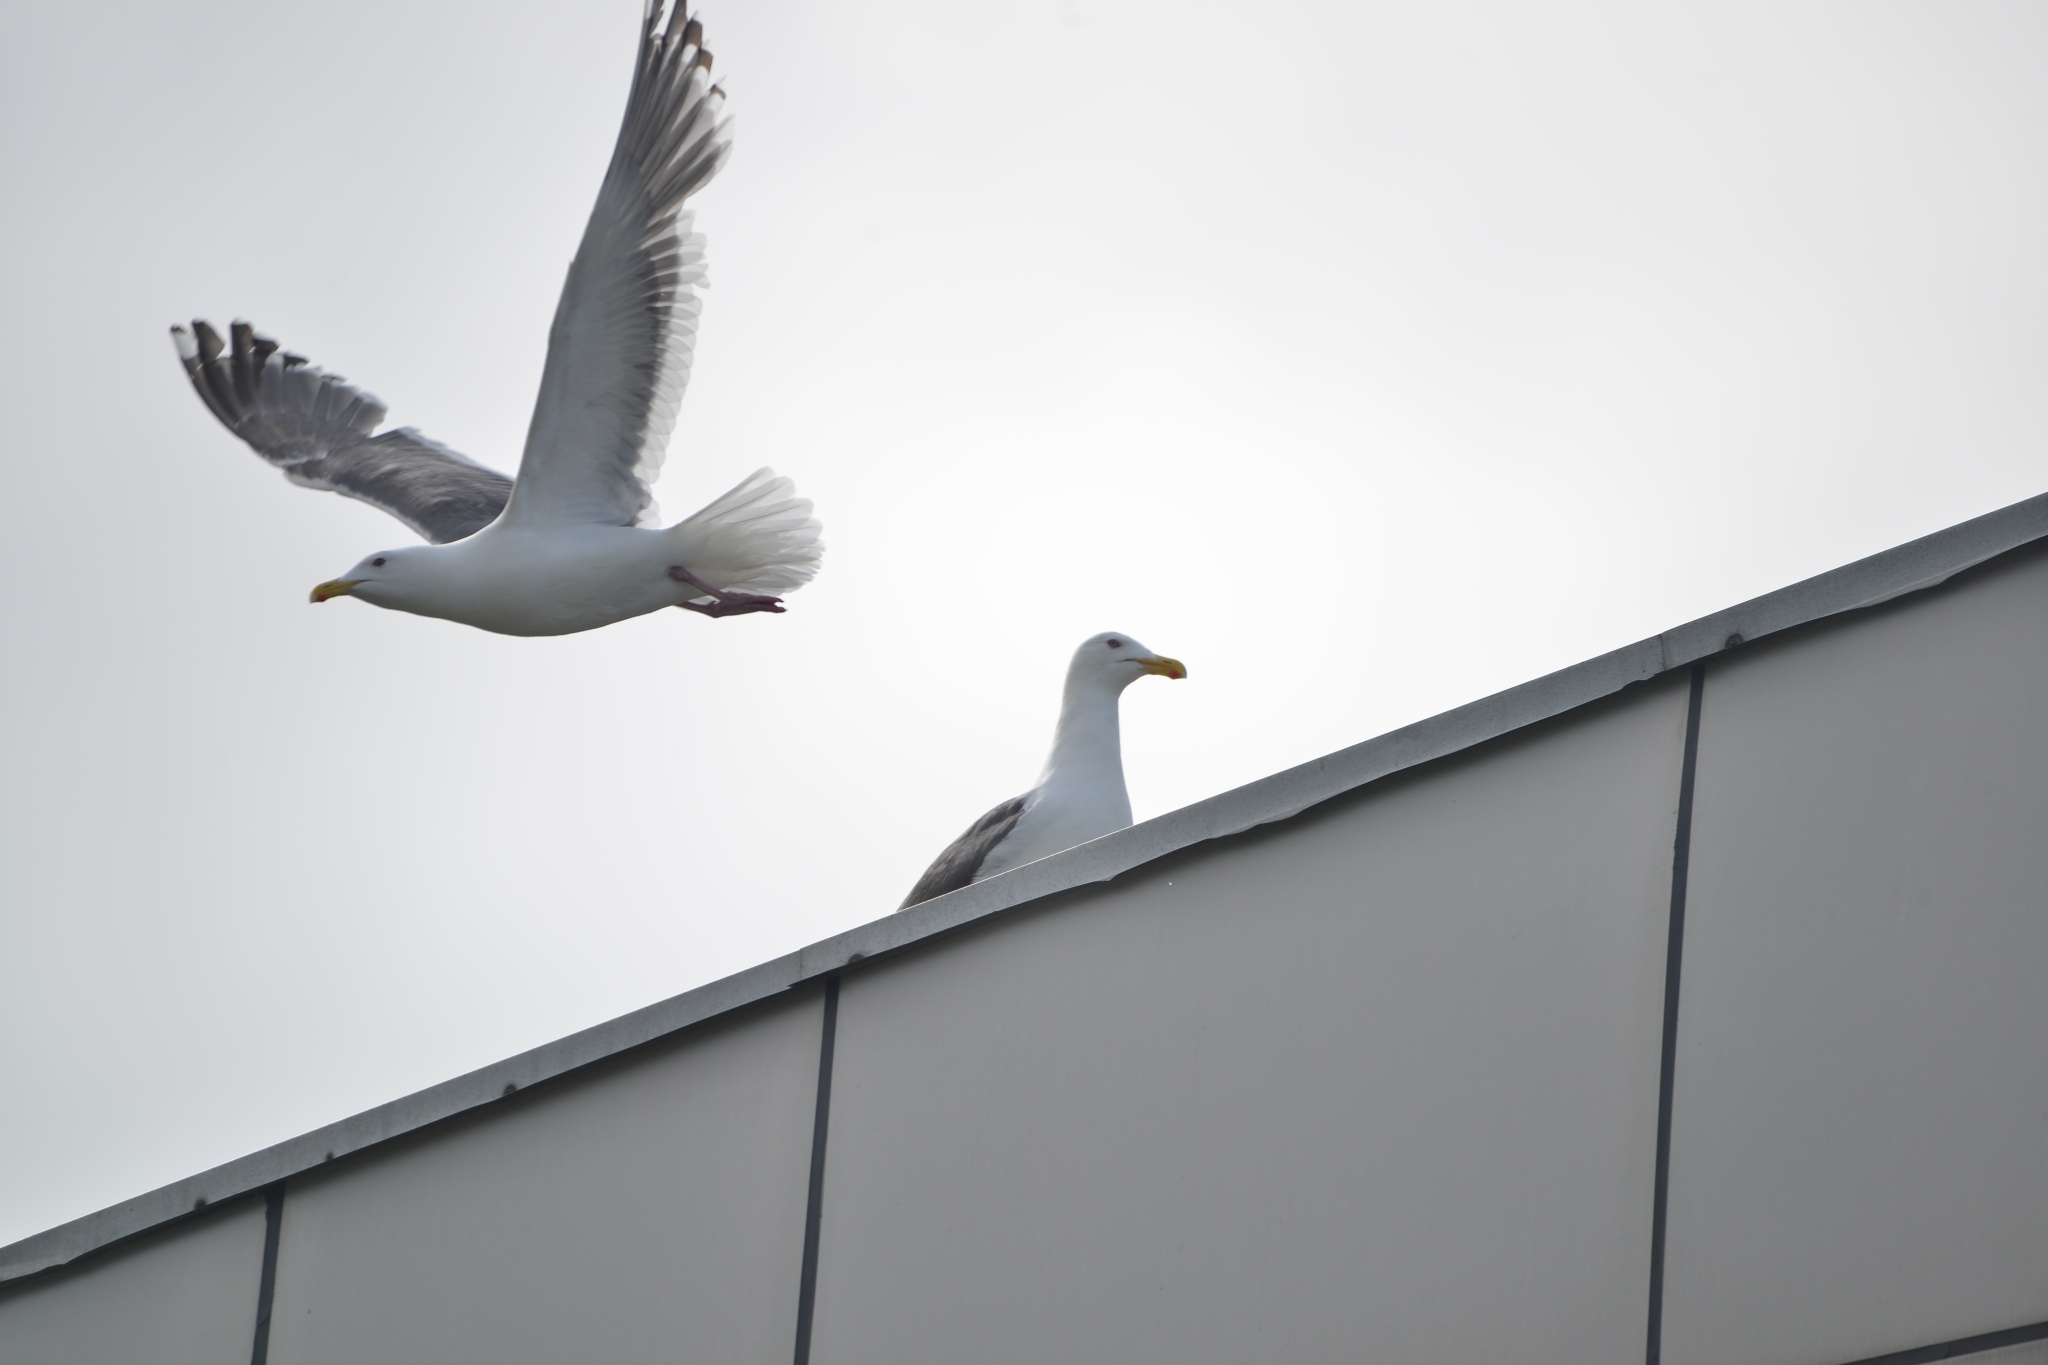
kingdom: Animalia
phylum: Chordata
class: Aves
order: Charadriiformes
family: Laridae
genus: Larus
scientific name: Larus schistisagus
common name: Slaty-backed gull
